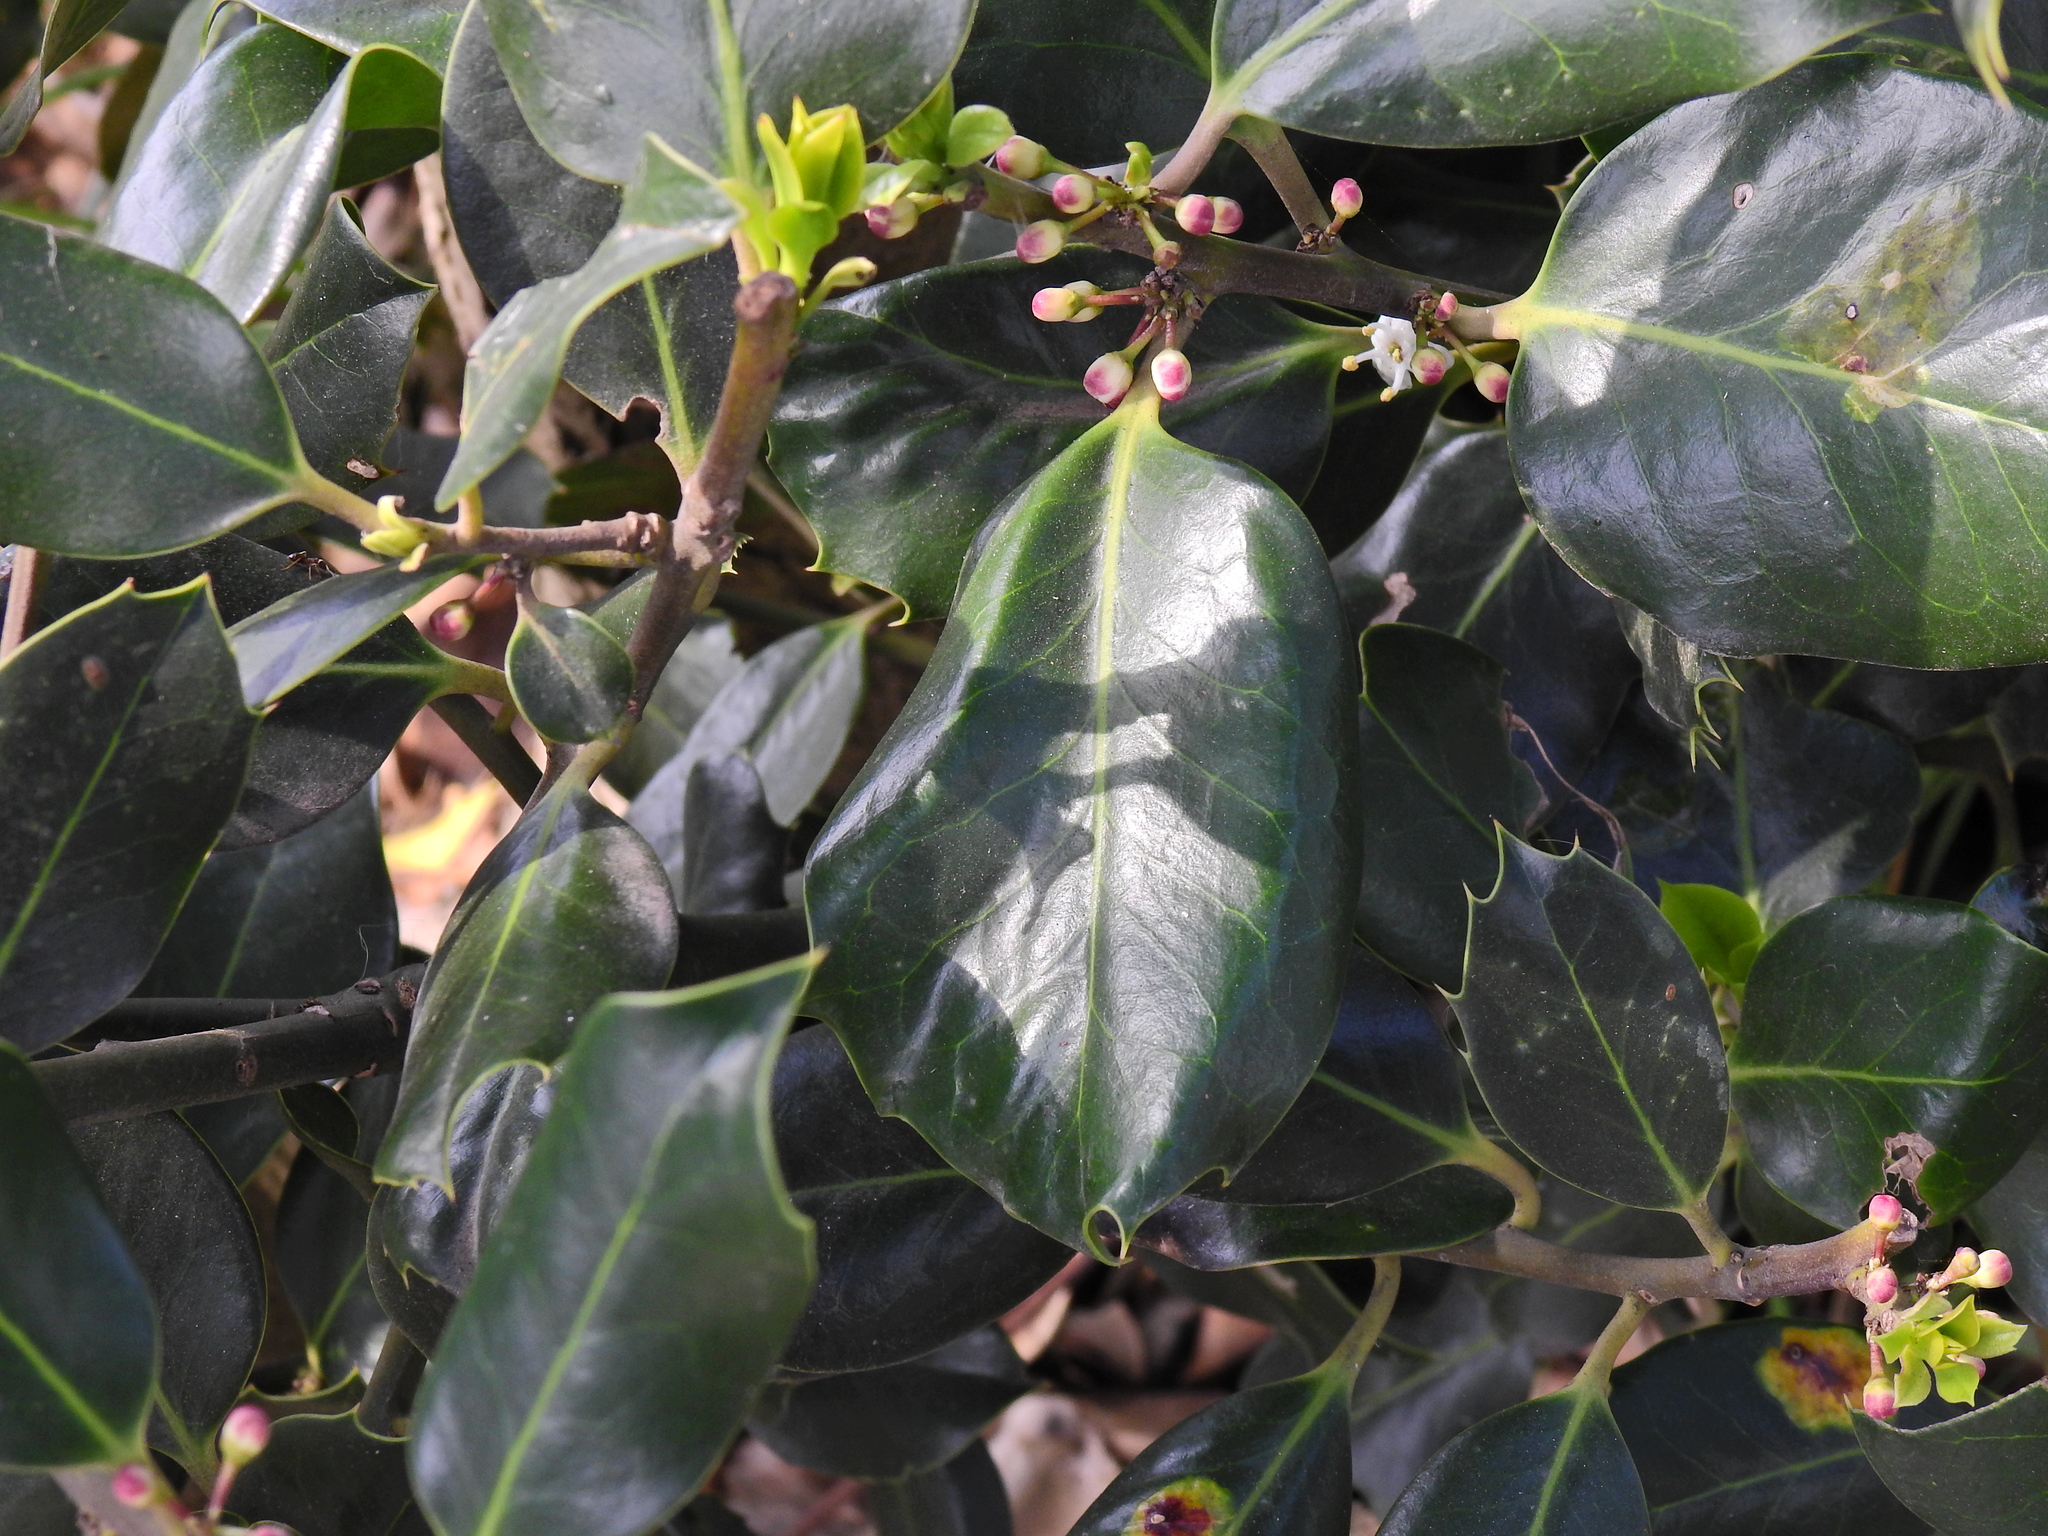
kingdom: Plantae
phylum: Tracheophyta
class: Magnoliopsida
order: Aquifoliales
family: Aquifoliaceae
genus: Ilex
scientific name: Ilex aquifolium
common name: English holly
